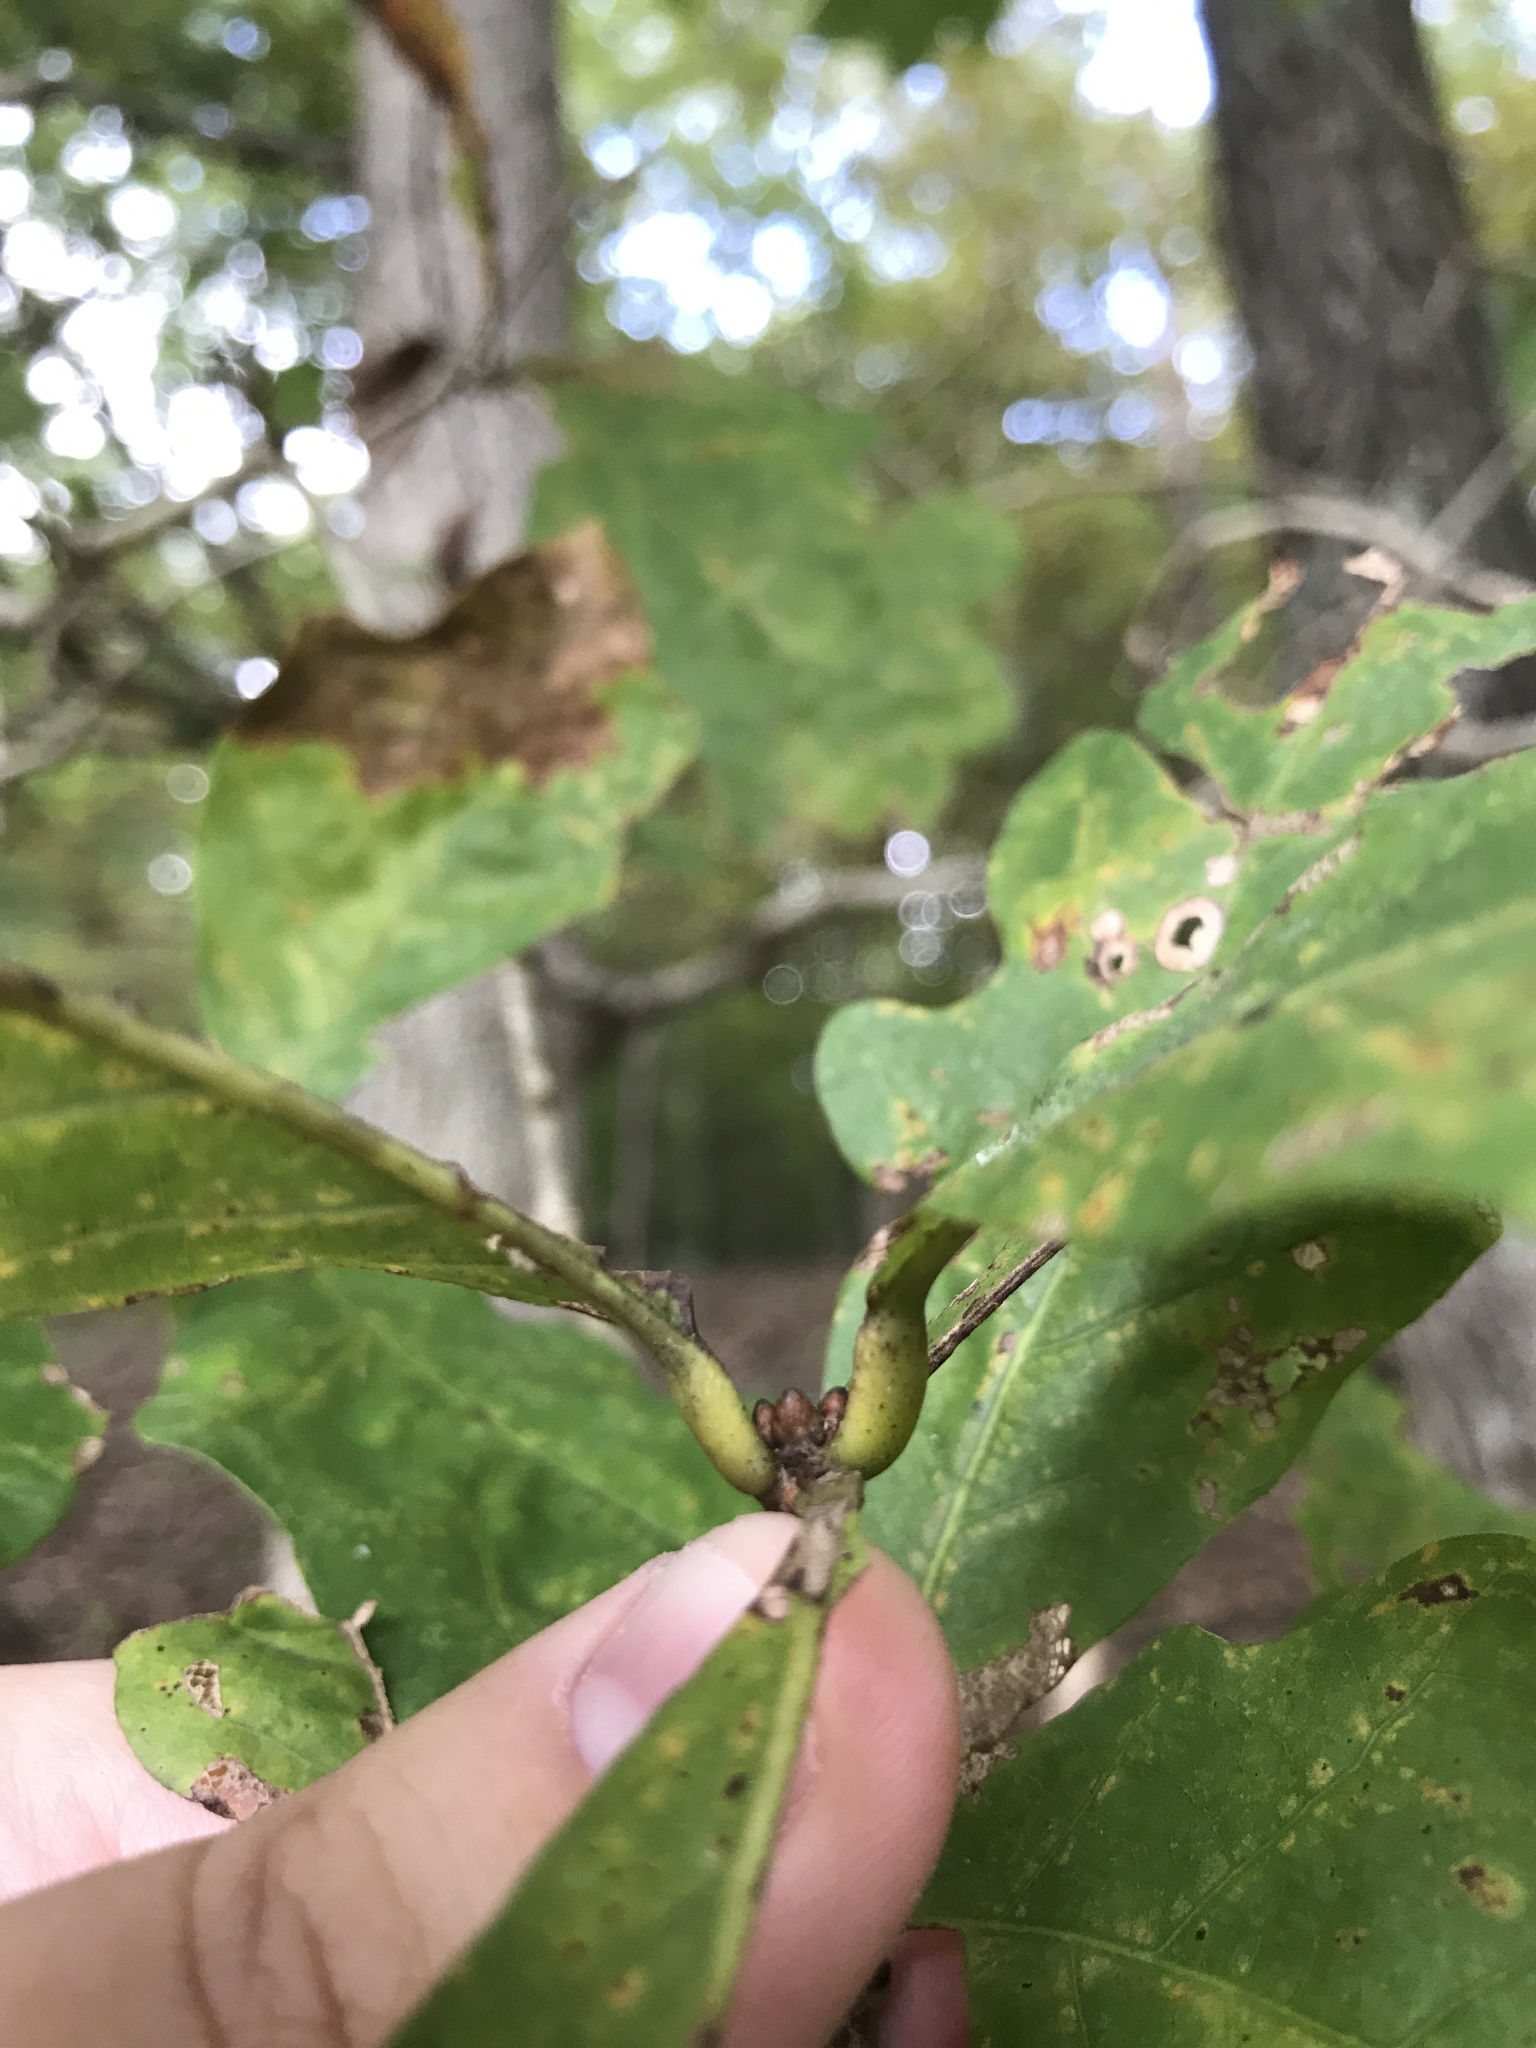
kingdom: Plantae
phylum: Tracheophyta
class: Magnoliopsida
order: Fagales
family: Fagaceae
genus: Quercus
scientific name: Quercus alba
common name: White oak
